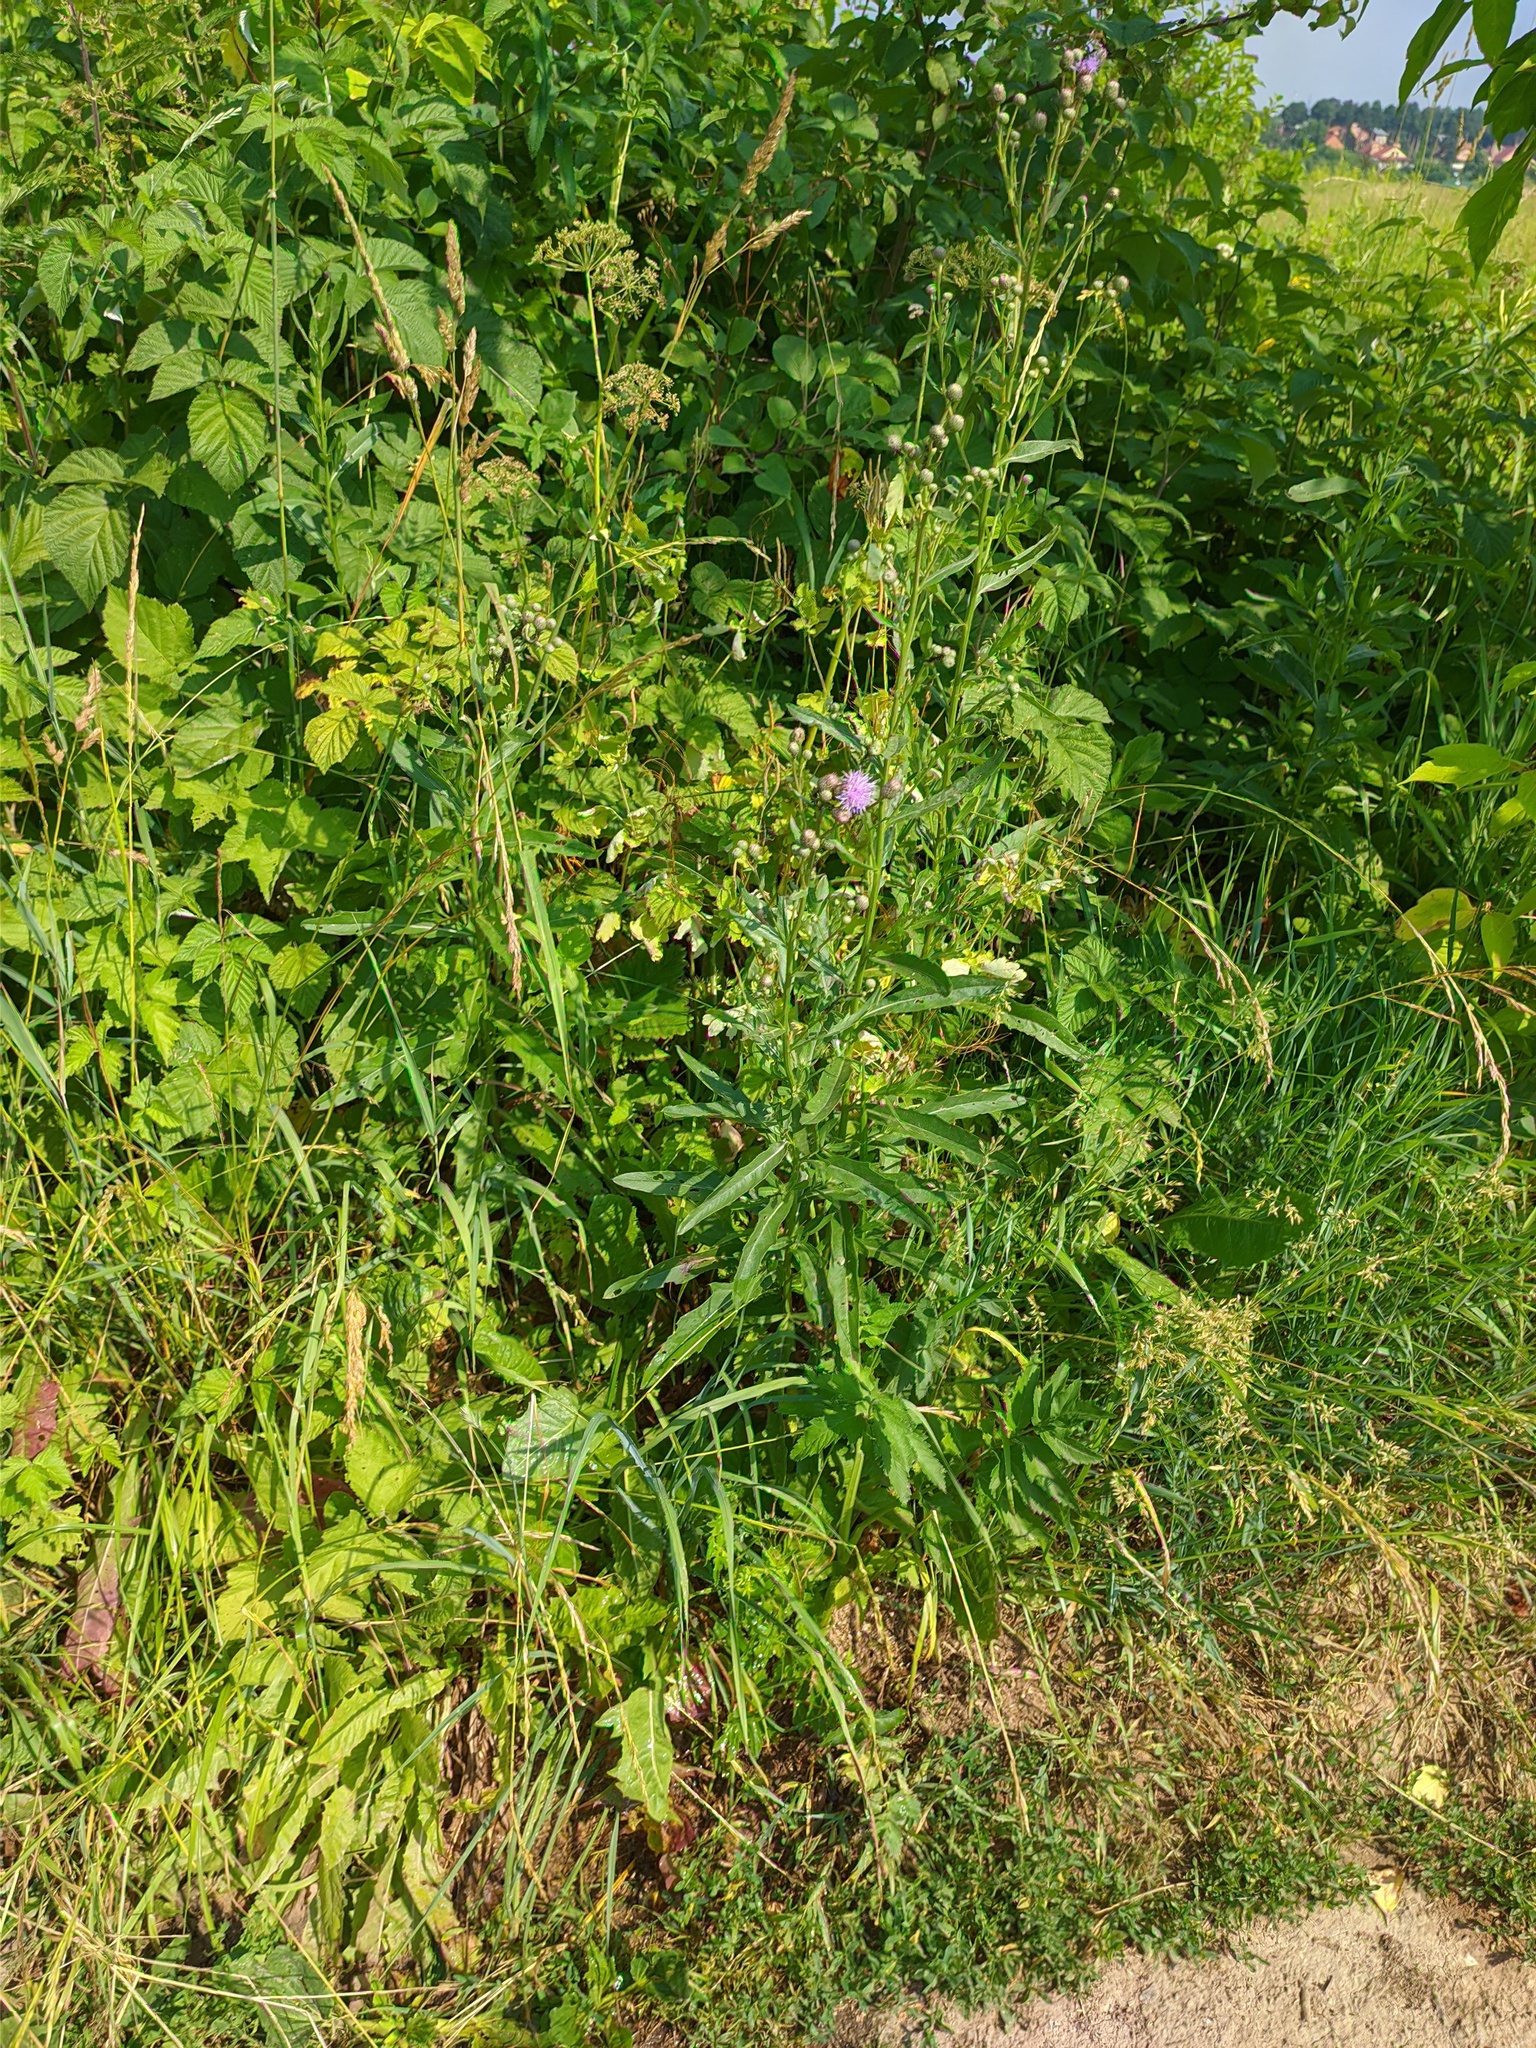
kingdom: Plantae
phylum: Tracheophyta
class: Magnoliopsida
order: Asterales
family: Asteraceae
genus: Cirsium
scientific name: Cirsium arvense
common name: Creeping thistle
